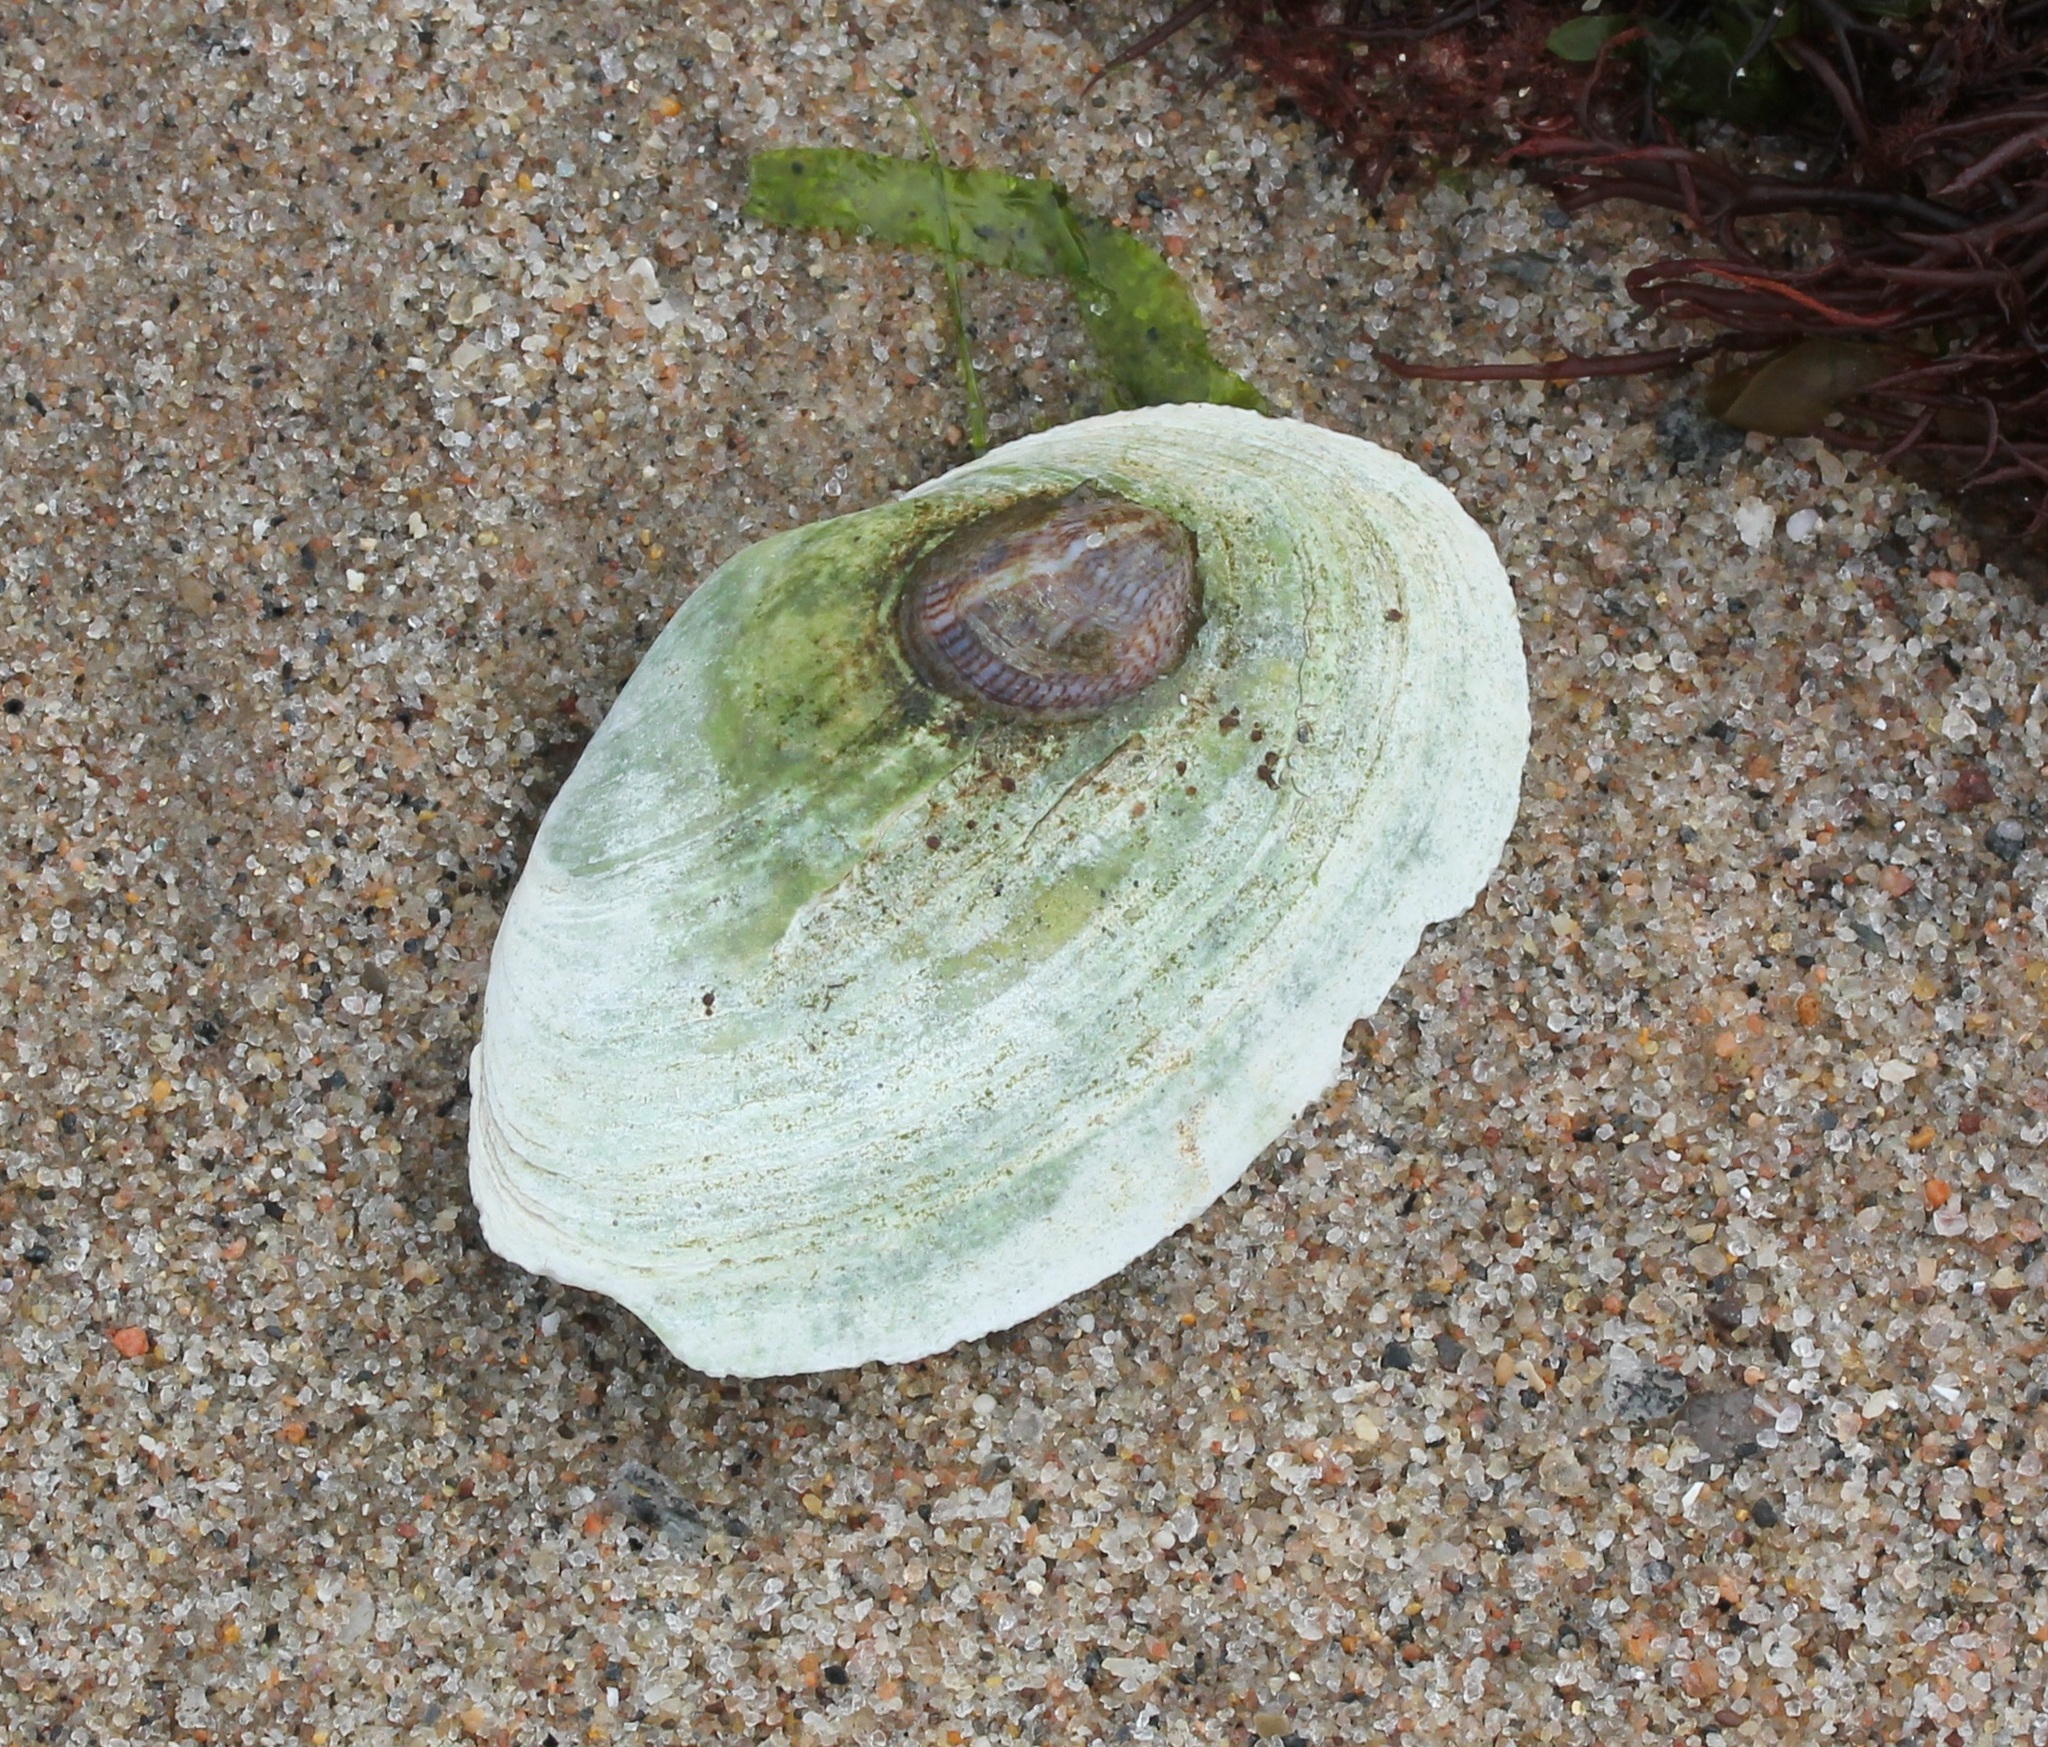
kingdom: Animalia
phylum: Mollusca
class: Bivalvia
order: Myida
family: Myidae
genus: Mya
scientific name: Mya arenaria
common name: Soft-shelled clam
